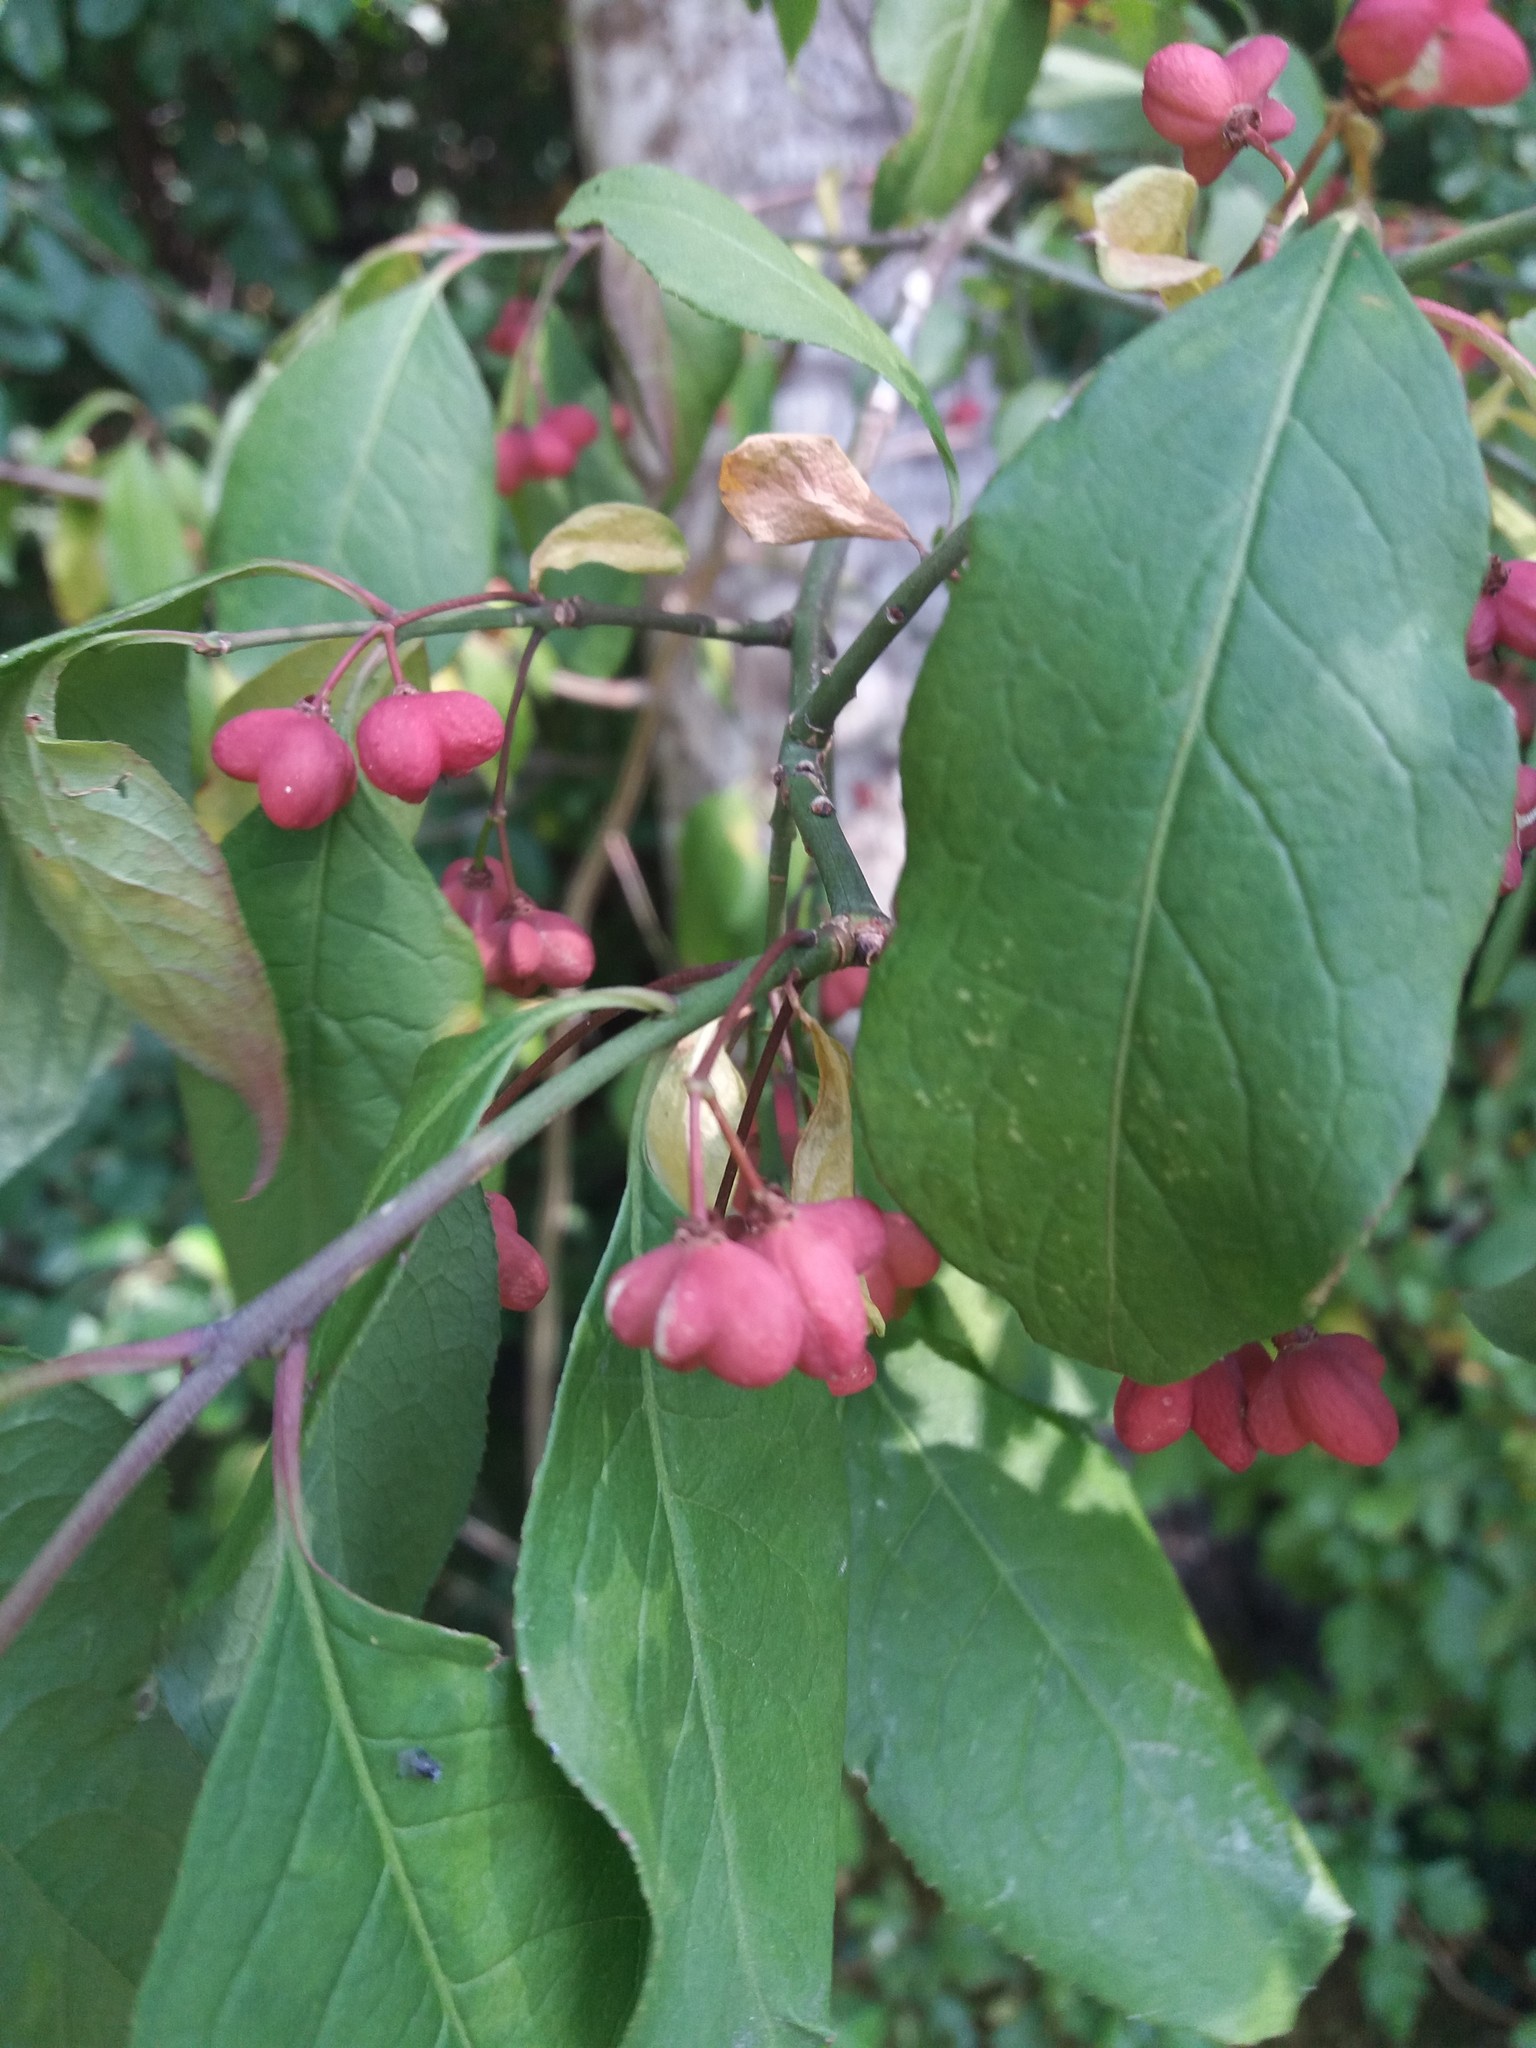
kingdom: Plantae
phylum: Tracheophyta
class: Magnoliopsida
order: Celastrales
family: Celastraceae
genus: Euonymus
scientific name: Euonymus europaeus
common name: Spindle
